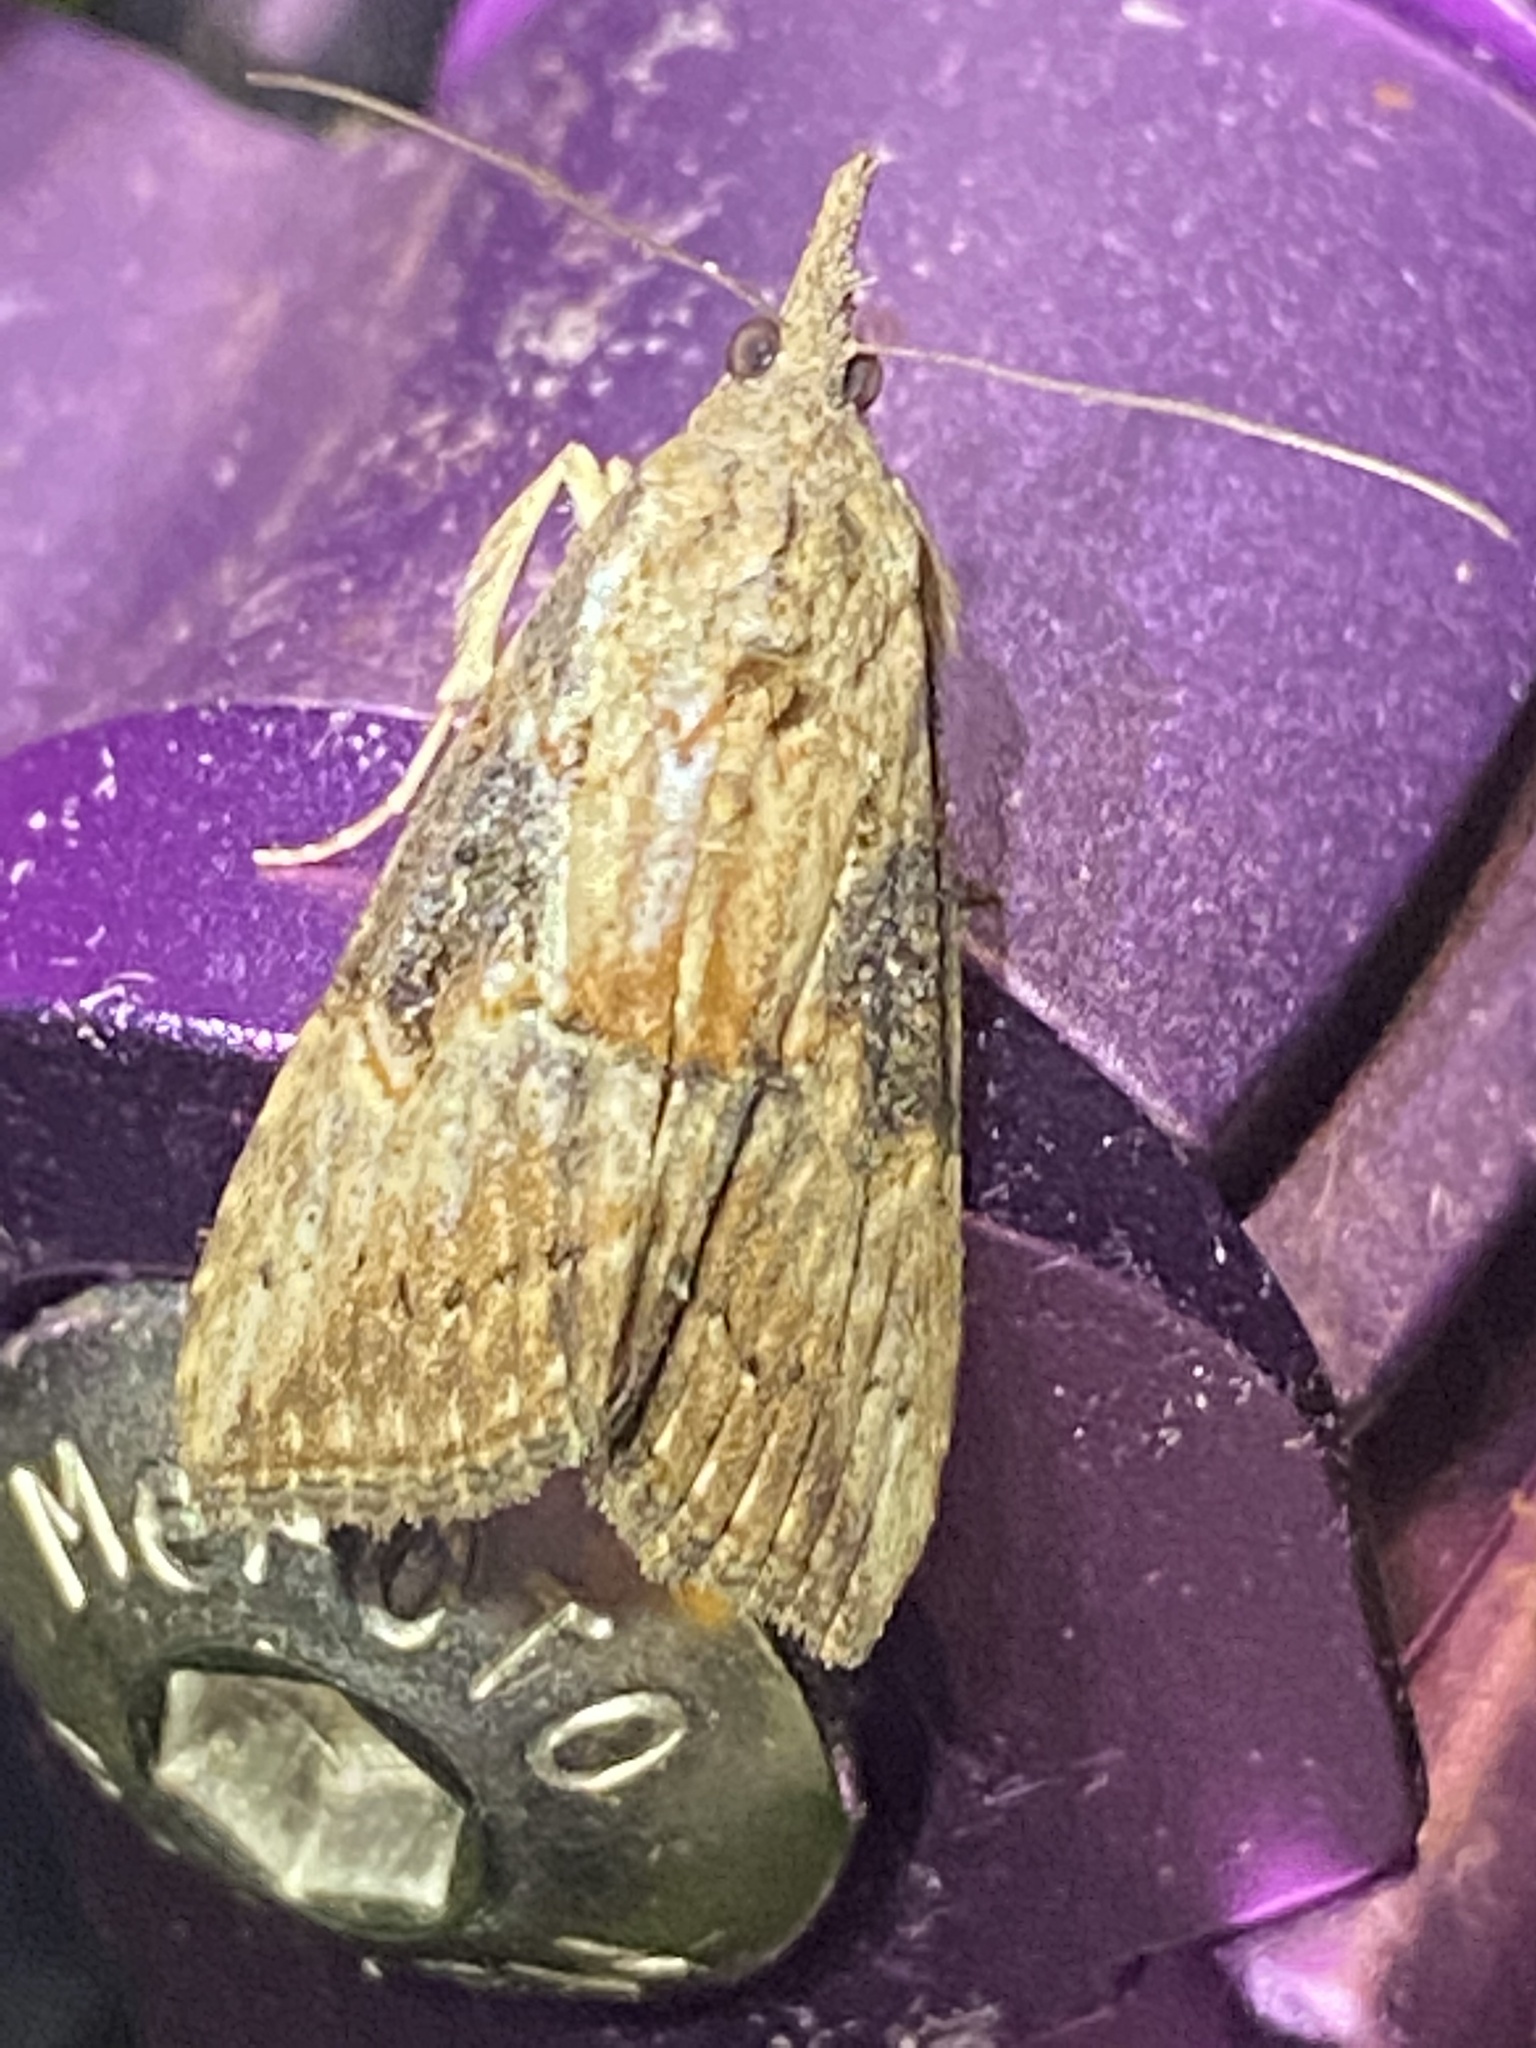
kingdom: Animalia
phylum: Arthropoda
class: Insecta
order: Lepidoptera
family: Erebidae
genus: Hypena
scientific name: Hypena scabra
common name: Green cloverworm
